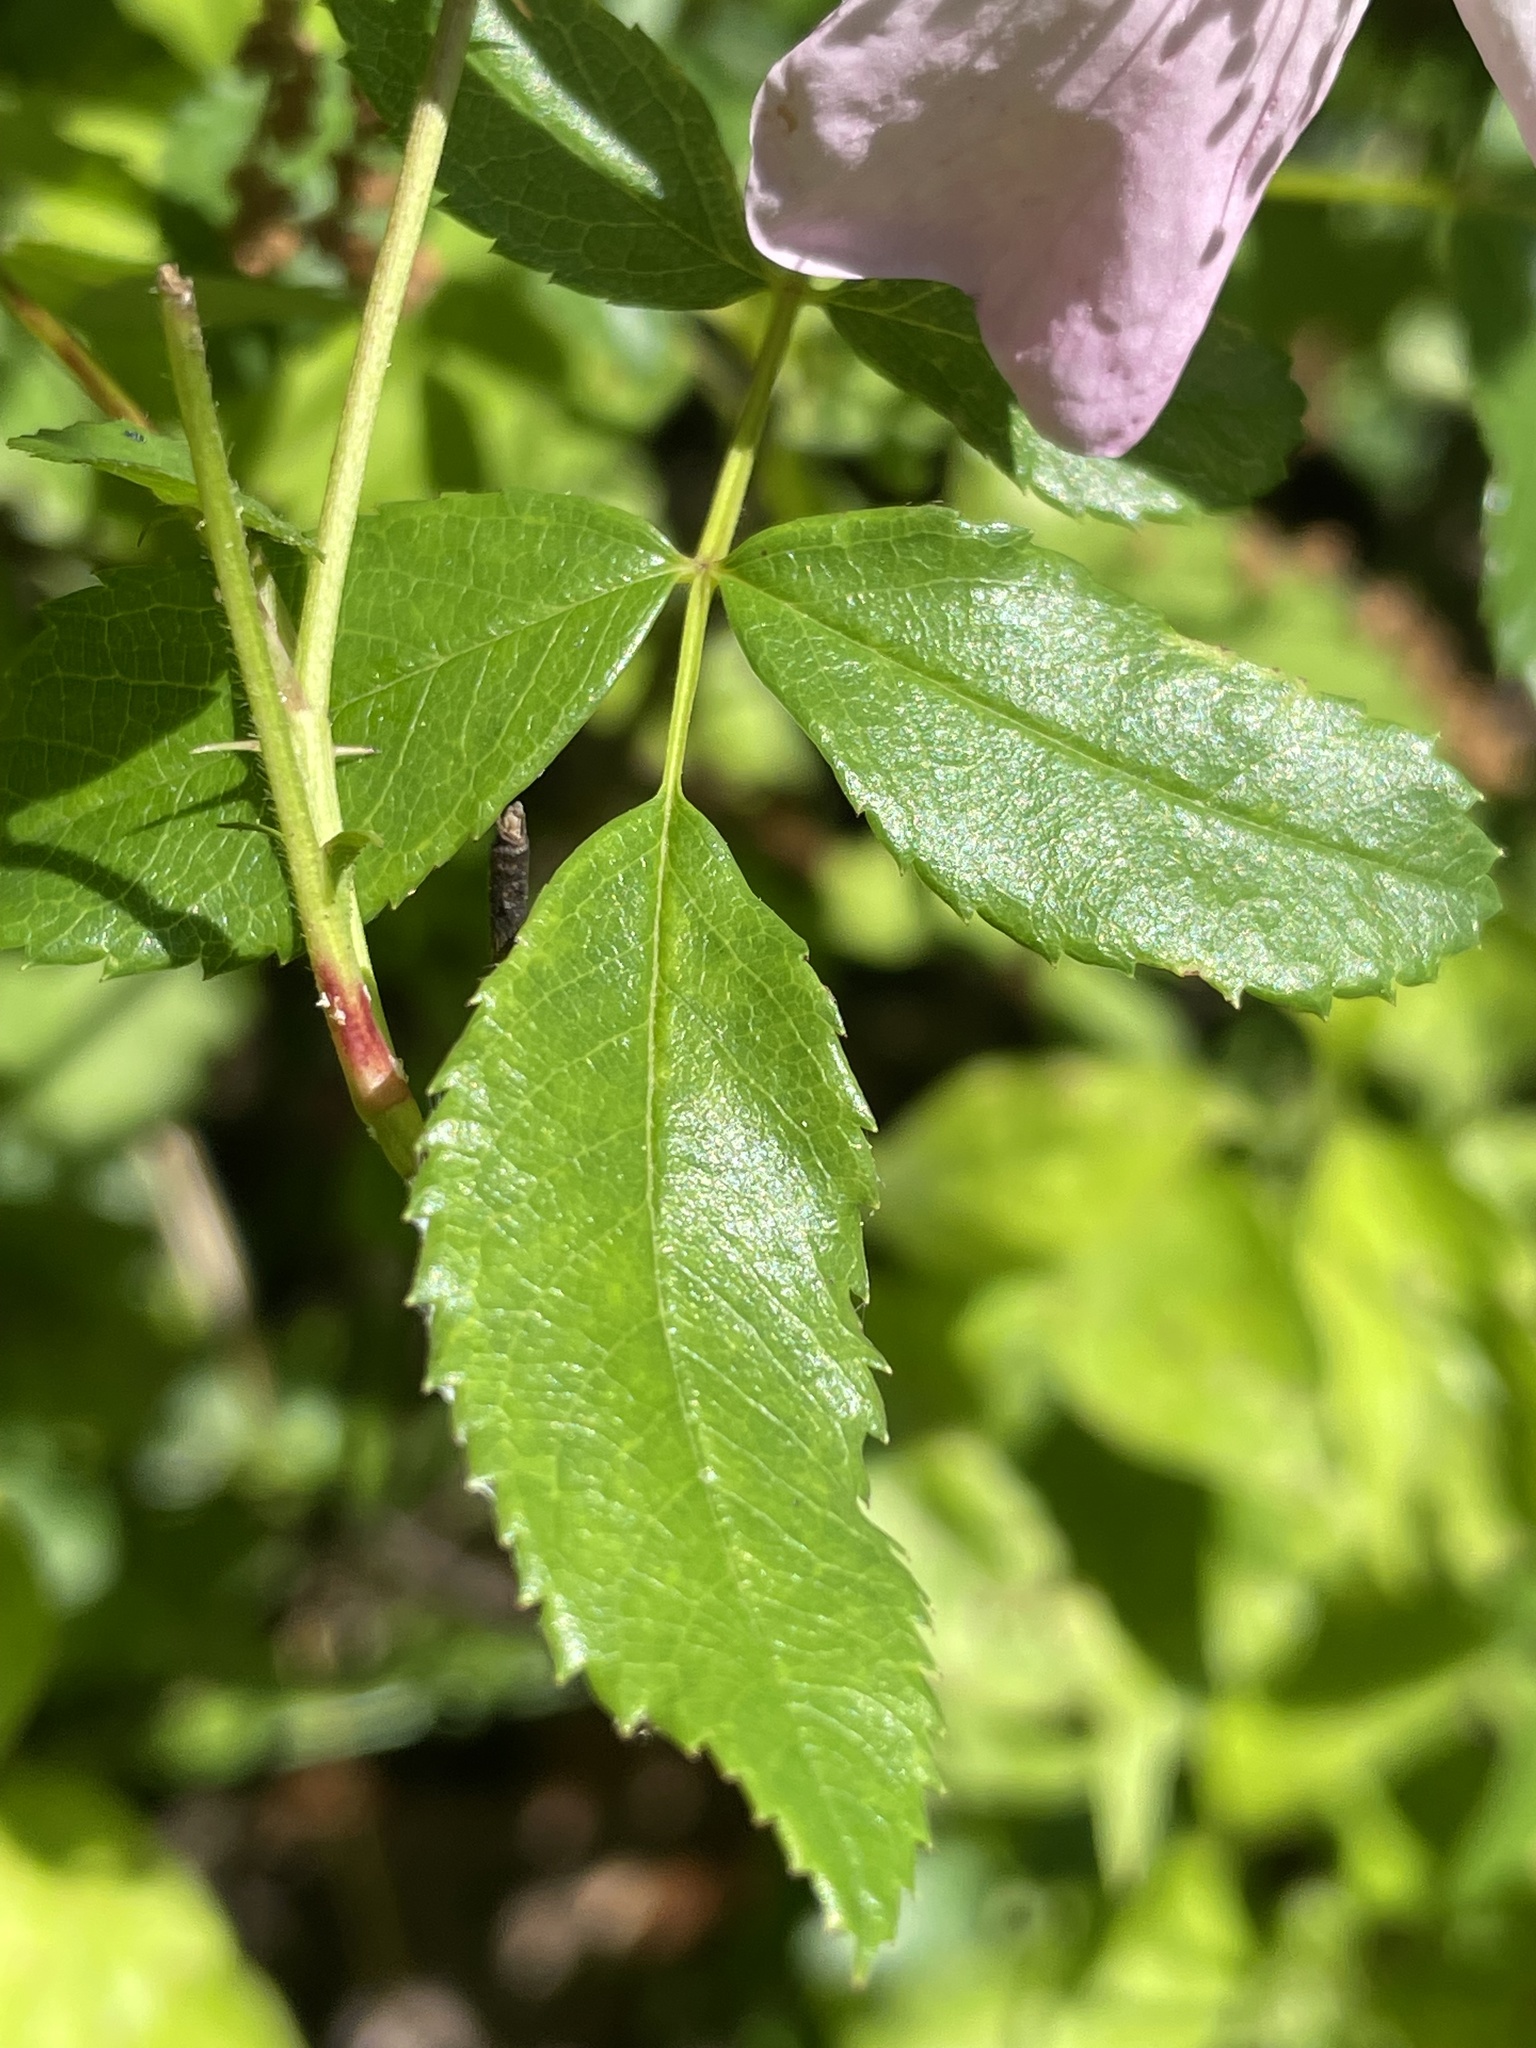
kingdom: Plantae
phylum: Tracheophyta
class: Magnoliopsida
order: Rosales
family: Rosaceae
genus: Rosa
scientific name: Rosa carolina
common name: Pasture rose
